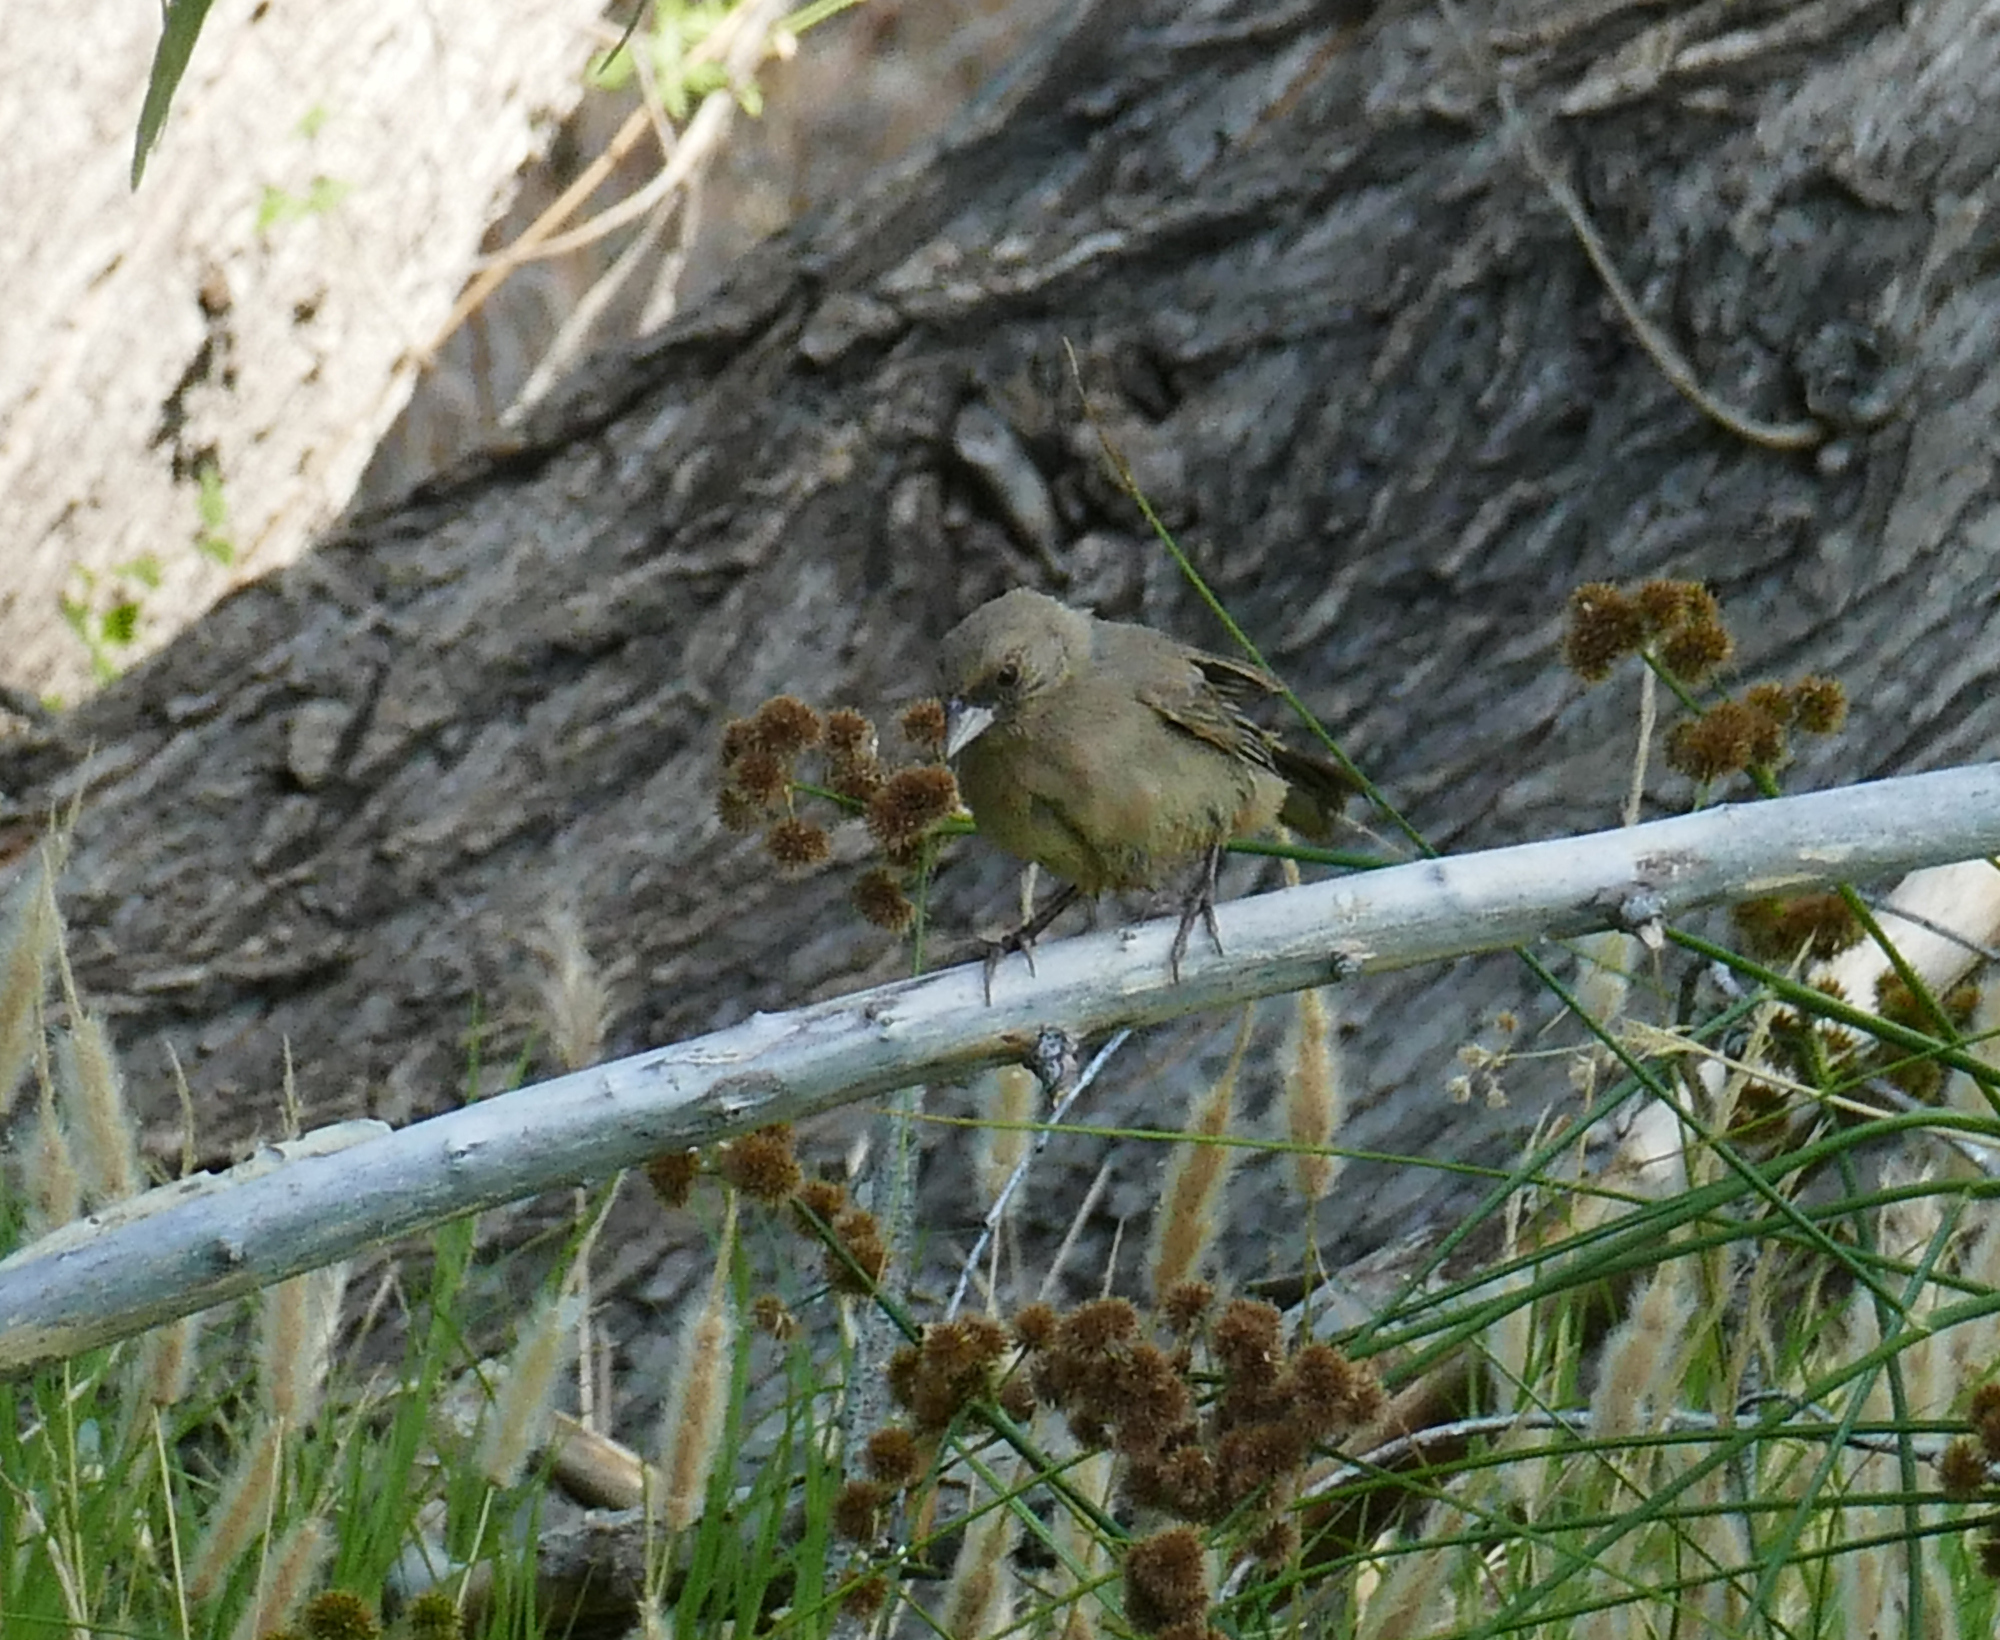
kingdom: Animalia
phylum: Chordata
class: Aves
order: Passeriformes
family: Passerellidae
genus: Melozone
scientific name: Melozone aberti
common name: Abert's towhee
